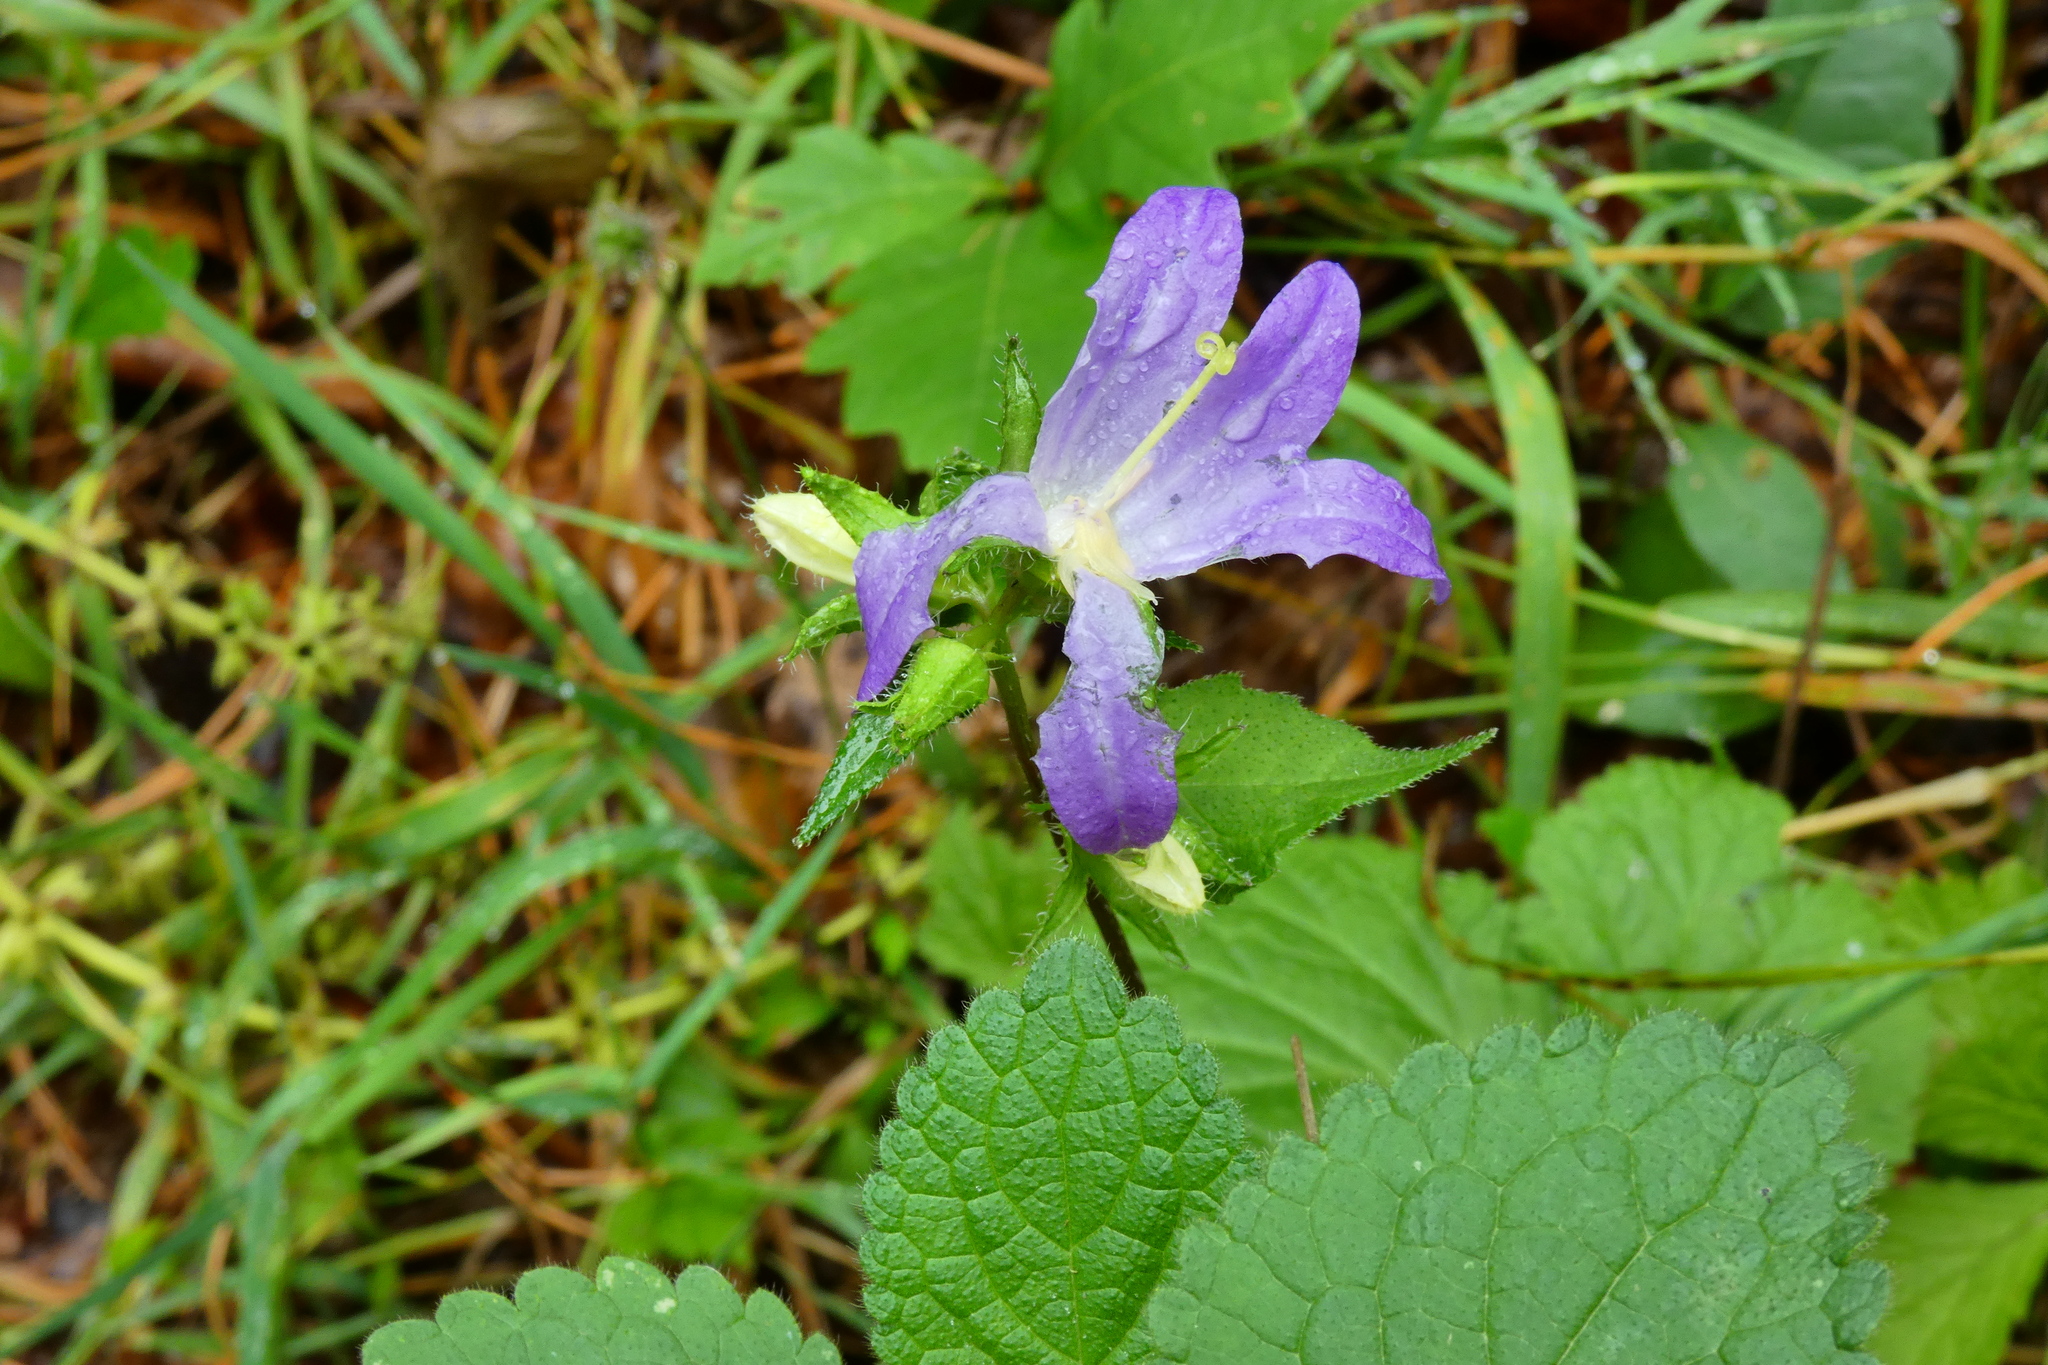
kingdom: Plantae
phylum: Tracheophyta
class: Magnoliopsida
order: Asterales
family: Campanulaceae
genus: Campanula
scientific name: Campanula trachelium
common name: Nettle-leaved bellflower
